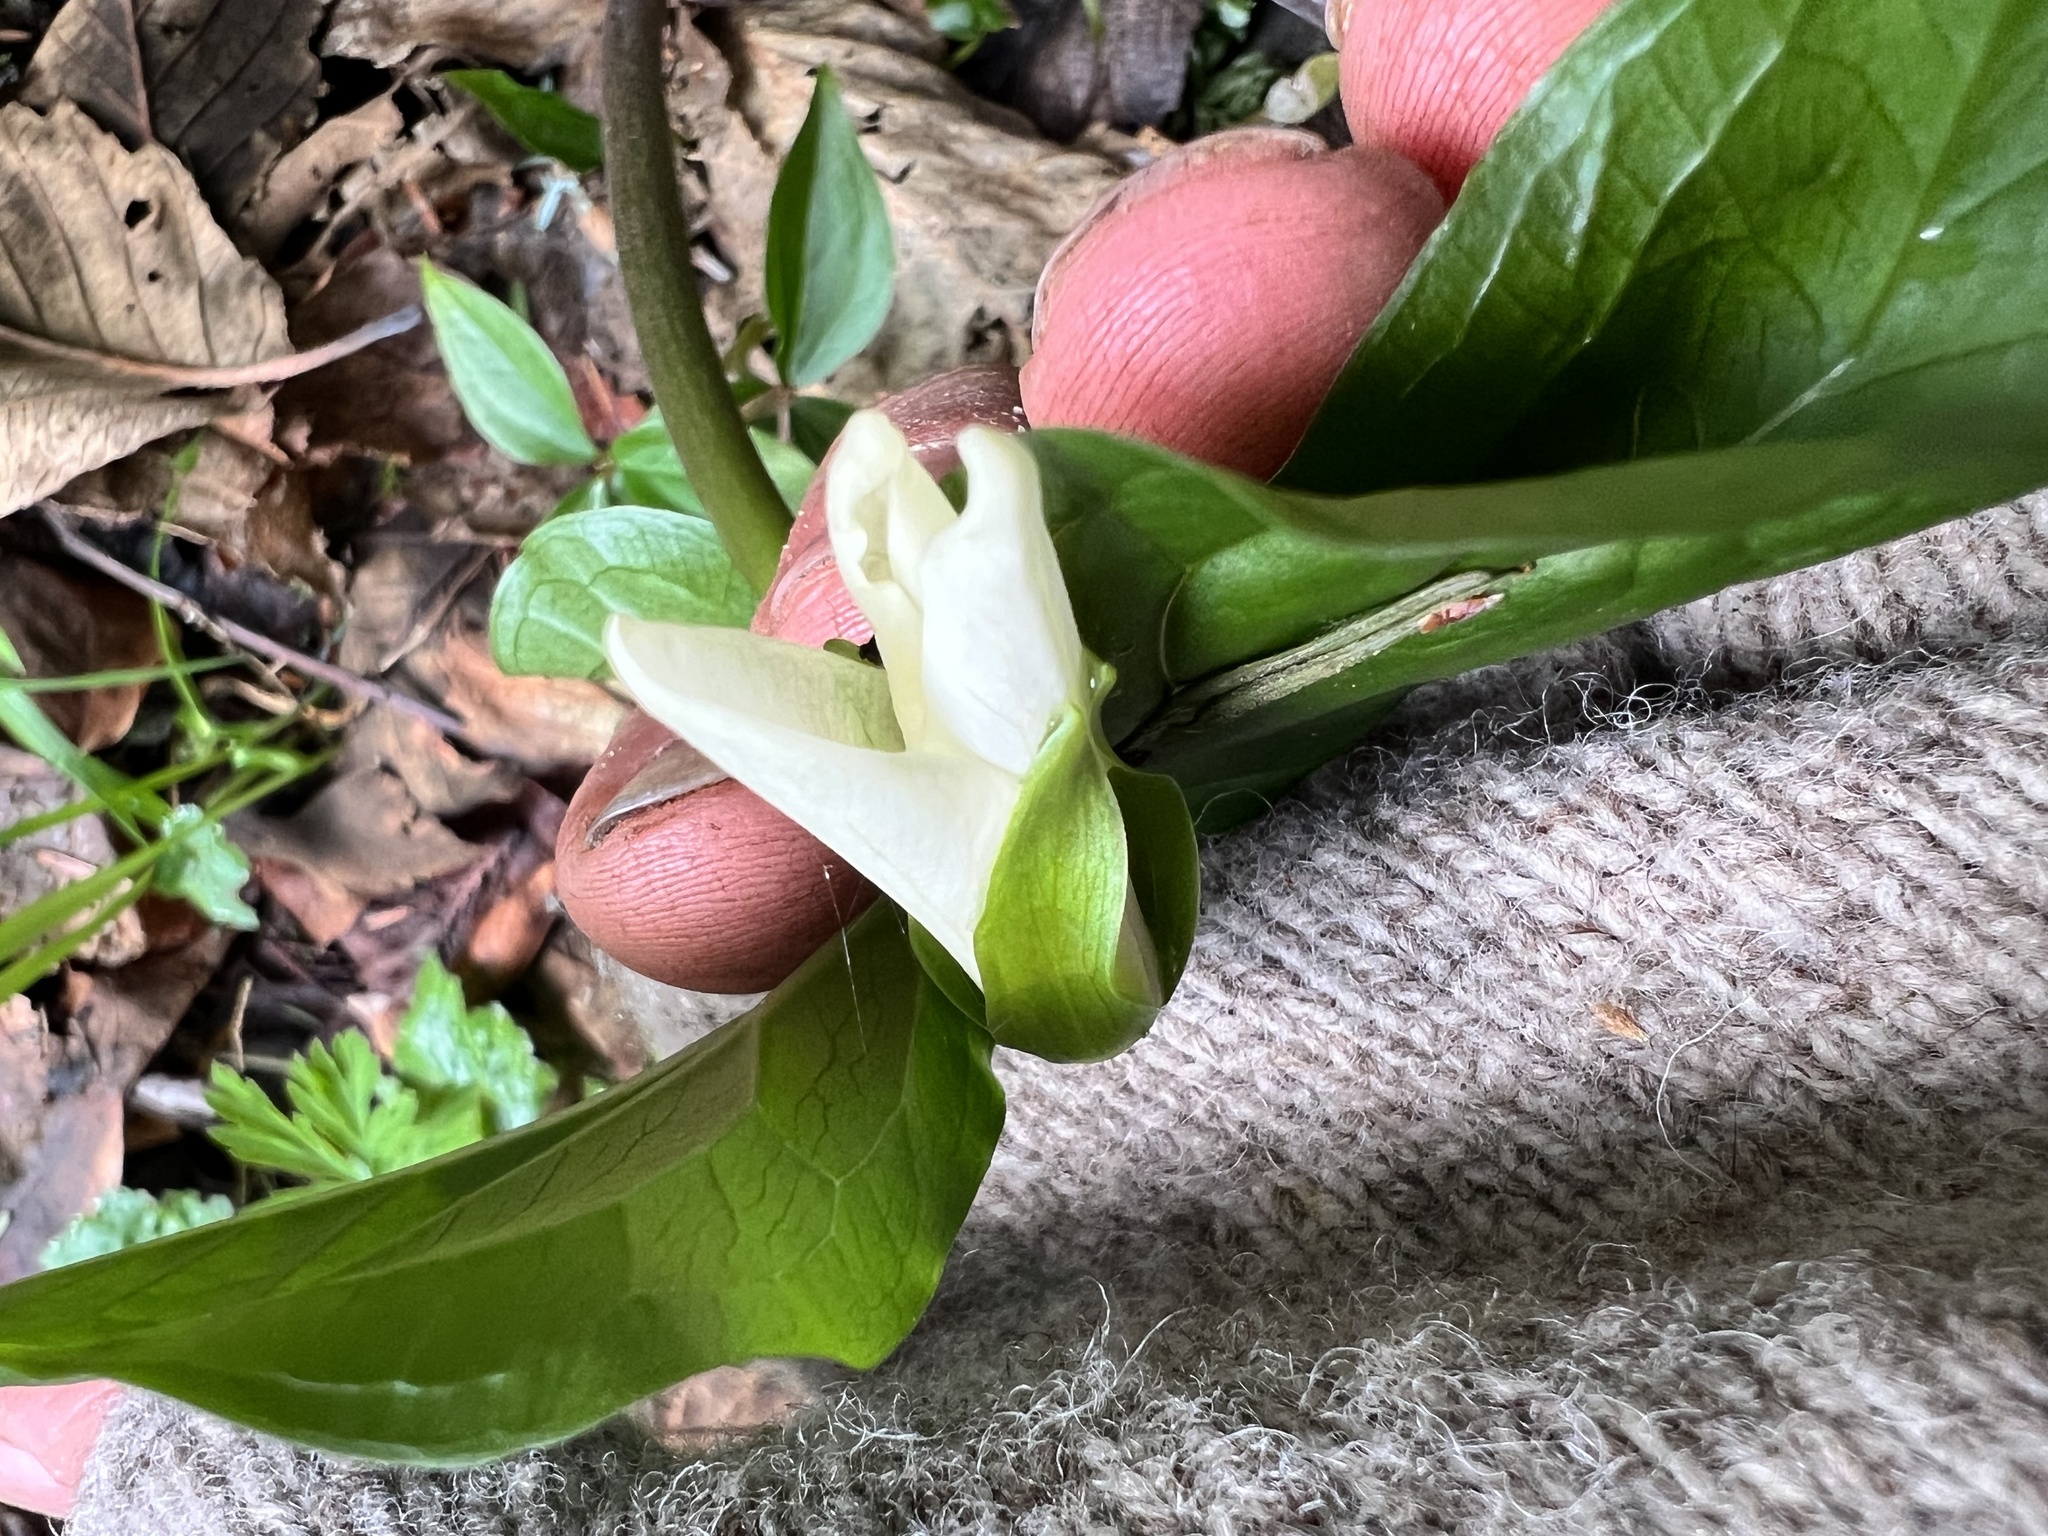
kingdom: Plantae
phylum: Tracheophyta
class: Liliopsida
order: Liliales
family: Melanthiaceae
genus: Trillium
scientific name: Trillium ovatum
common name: Pacific trillium
